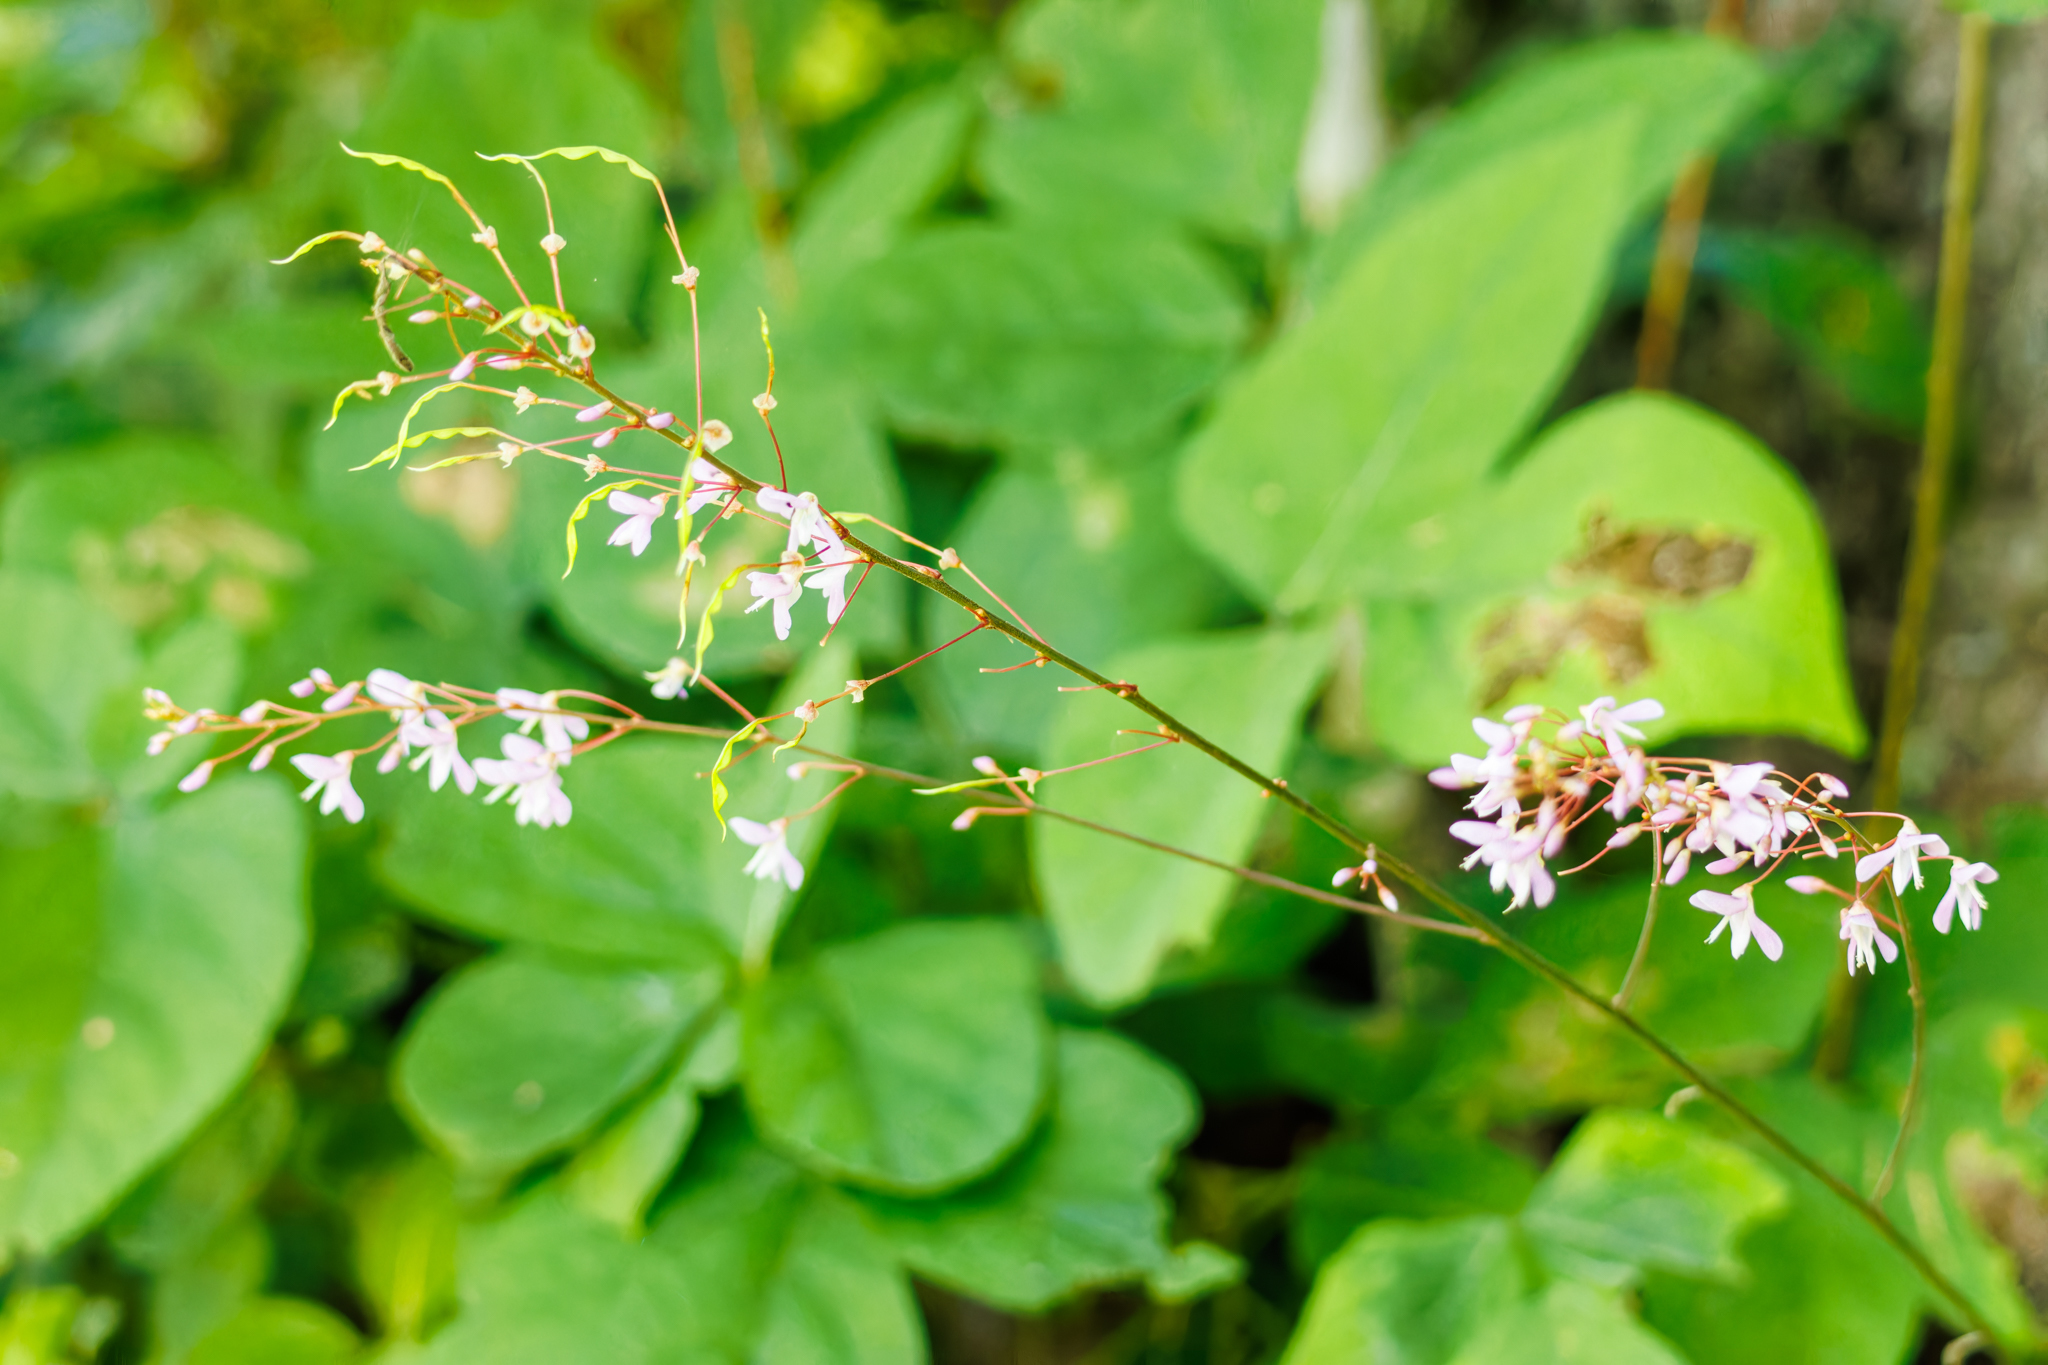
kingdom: Plantae
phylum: Tracheophyta
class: Magnoliopsida
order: Fabales
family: Fabaceae
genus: Hylodesmum
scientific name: Hylodesmum nudiflorum
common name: Bare-stemmed tick-trefoil
